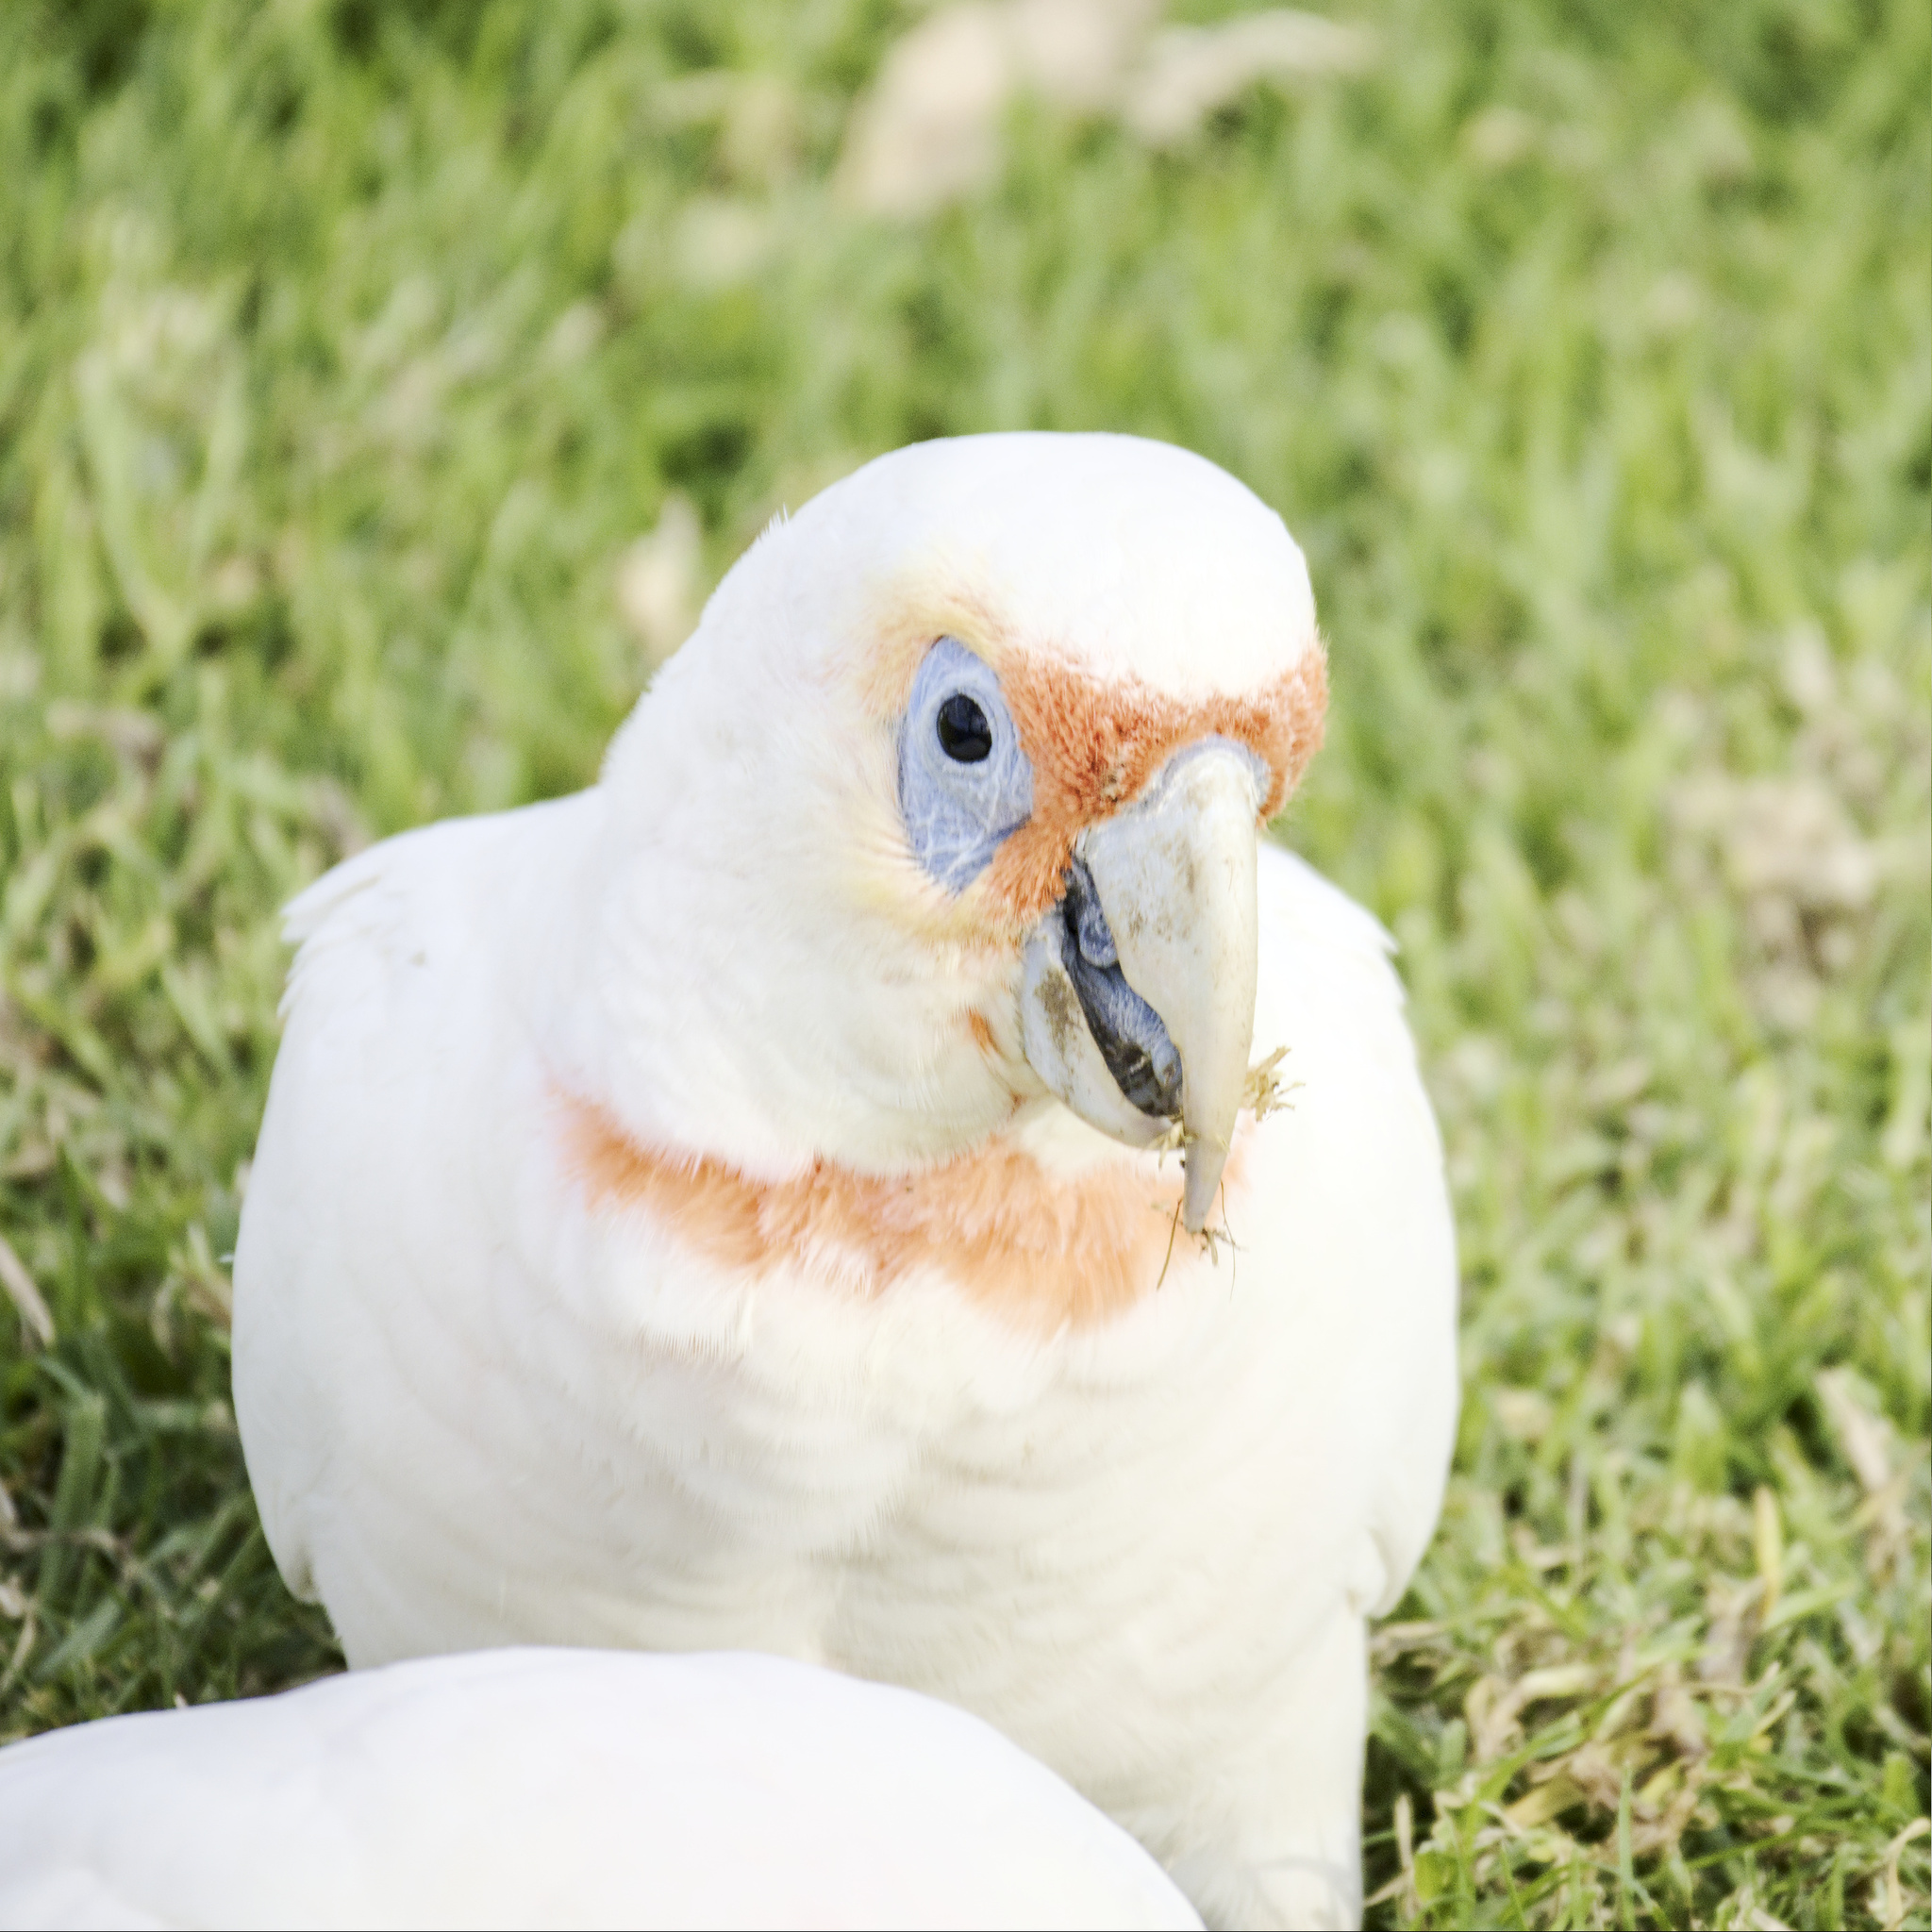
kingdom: Animalia
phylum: Chordata
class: Aves
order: Psittaciformes
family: Psittacidae
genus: Cacatua
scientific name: Cacatua tenuirostris
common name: Long-billed corella
